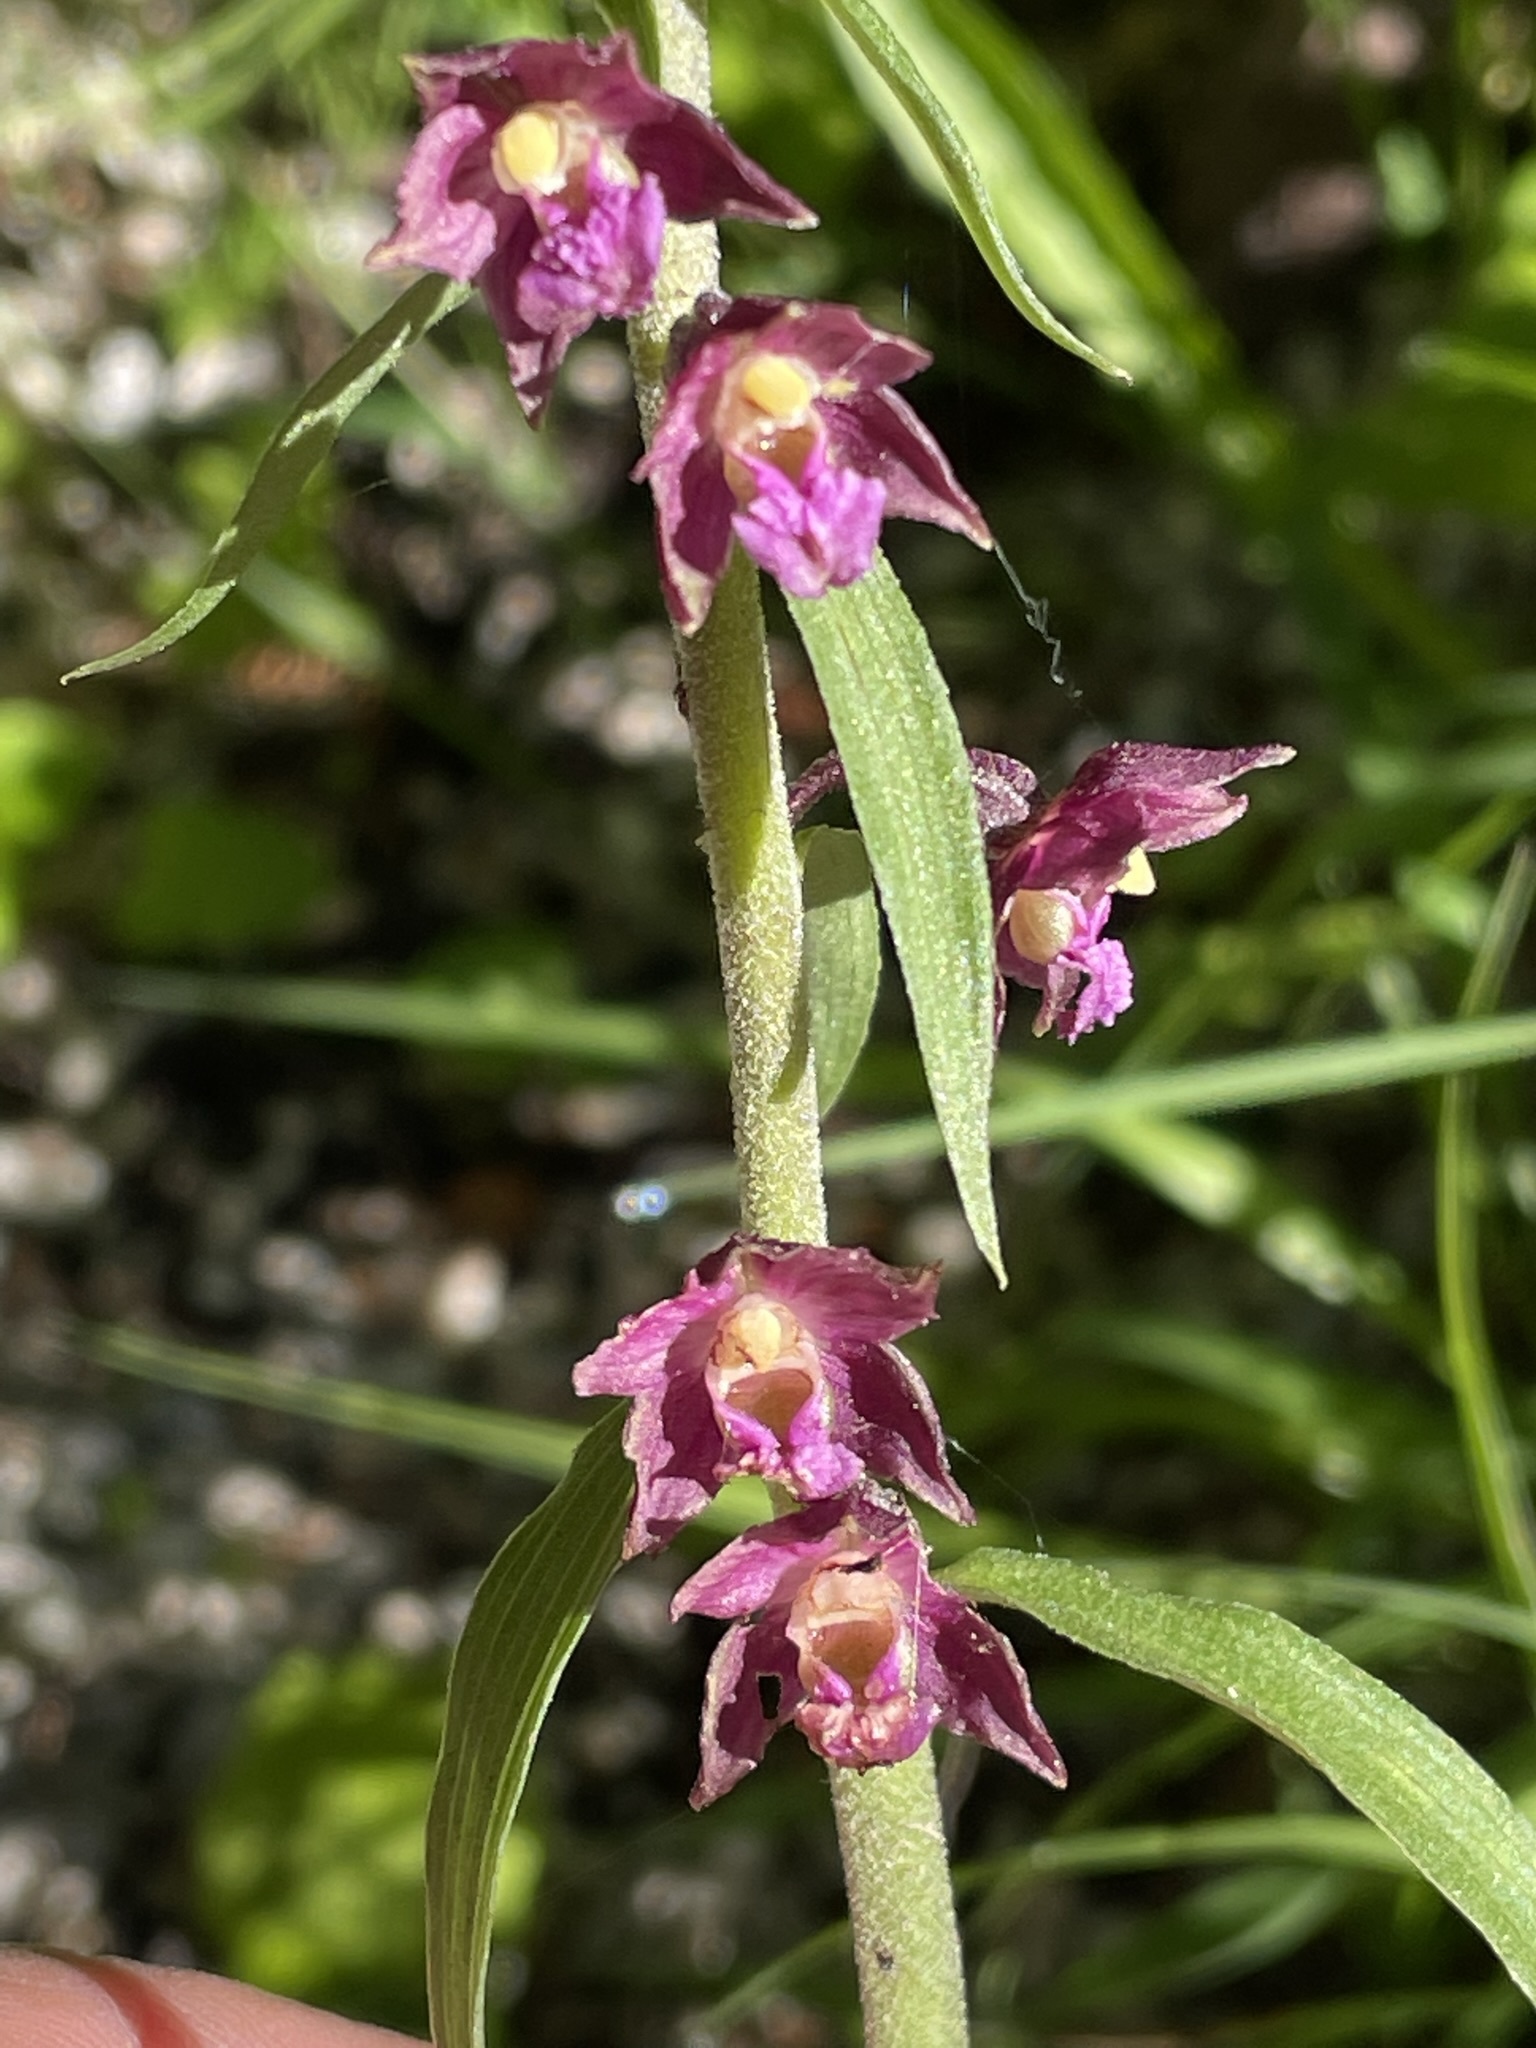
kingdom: Plantae
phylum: Tracheophyta
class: Liliopsida
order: Asparagales
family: Orchidaceae
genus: Epipactis
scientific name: Epipactis atrorubens
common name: Dark-red helleborine
